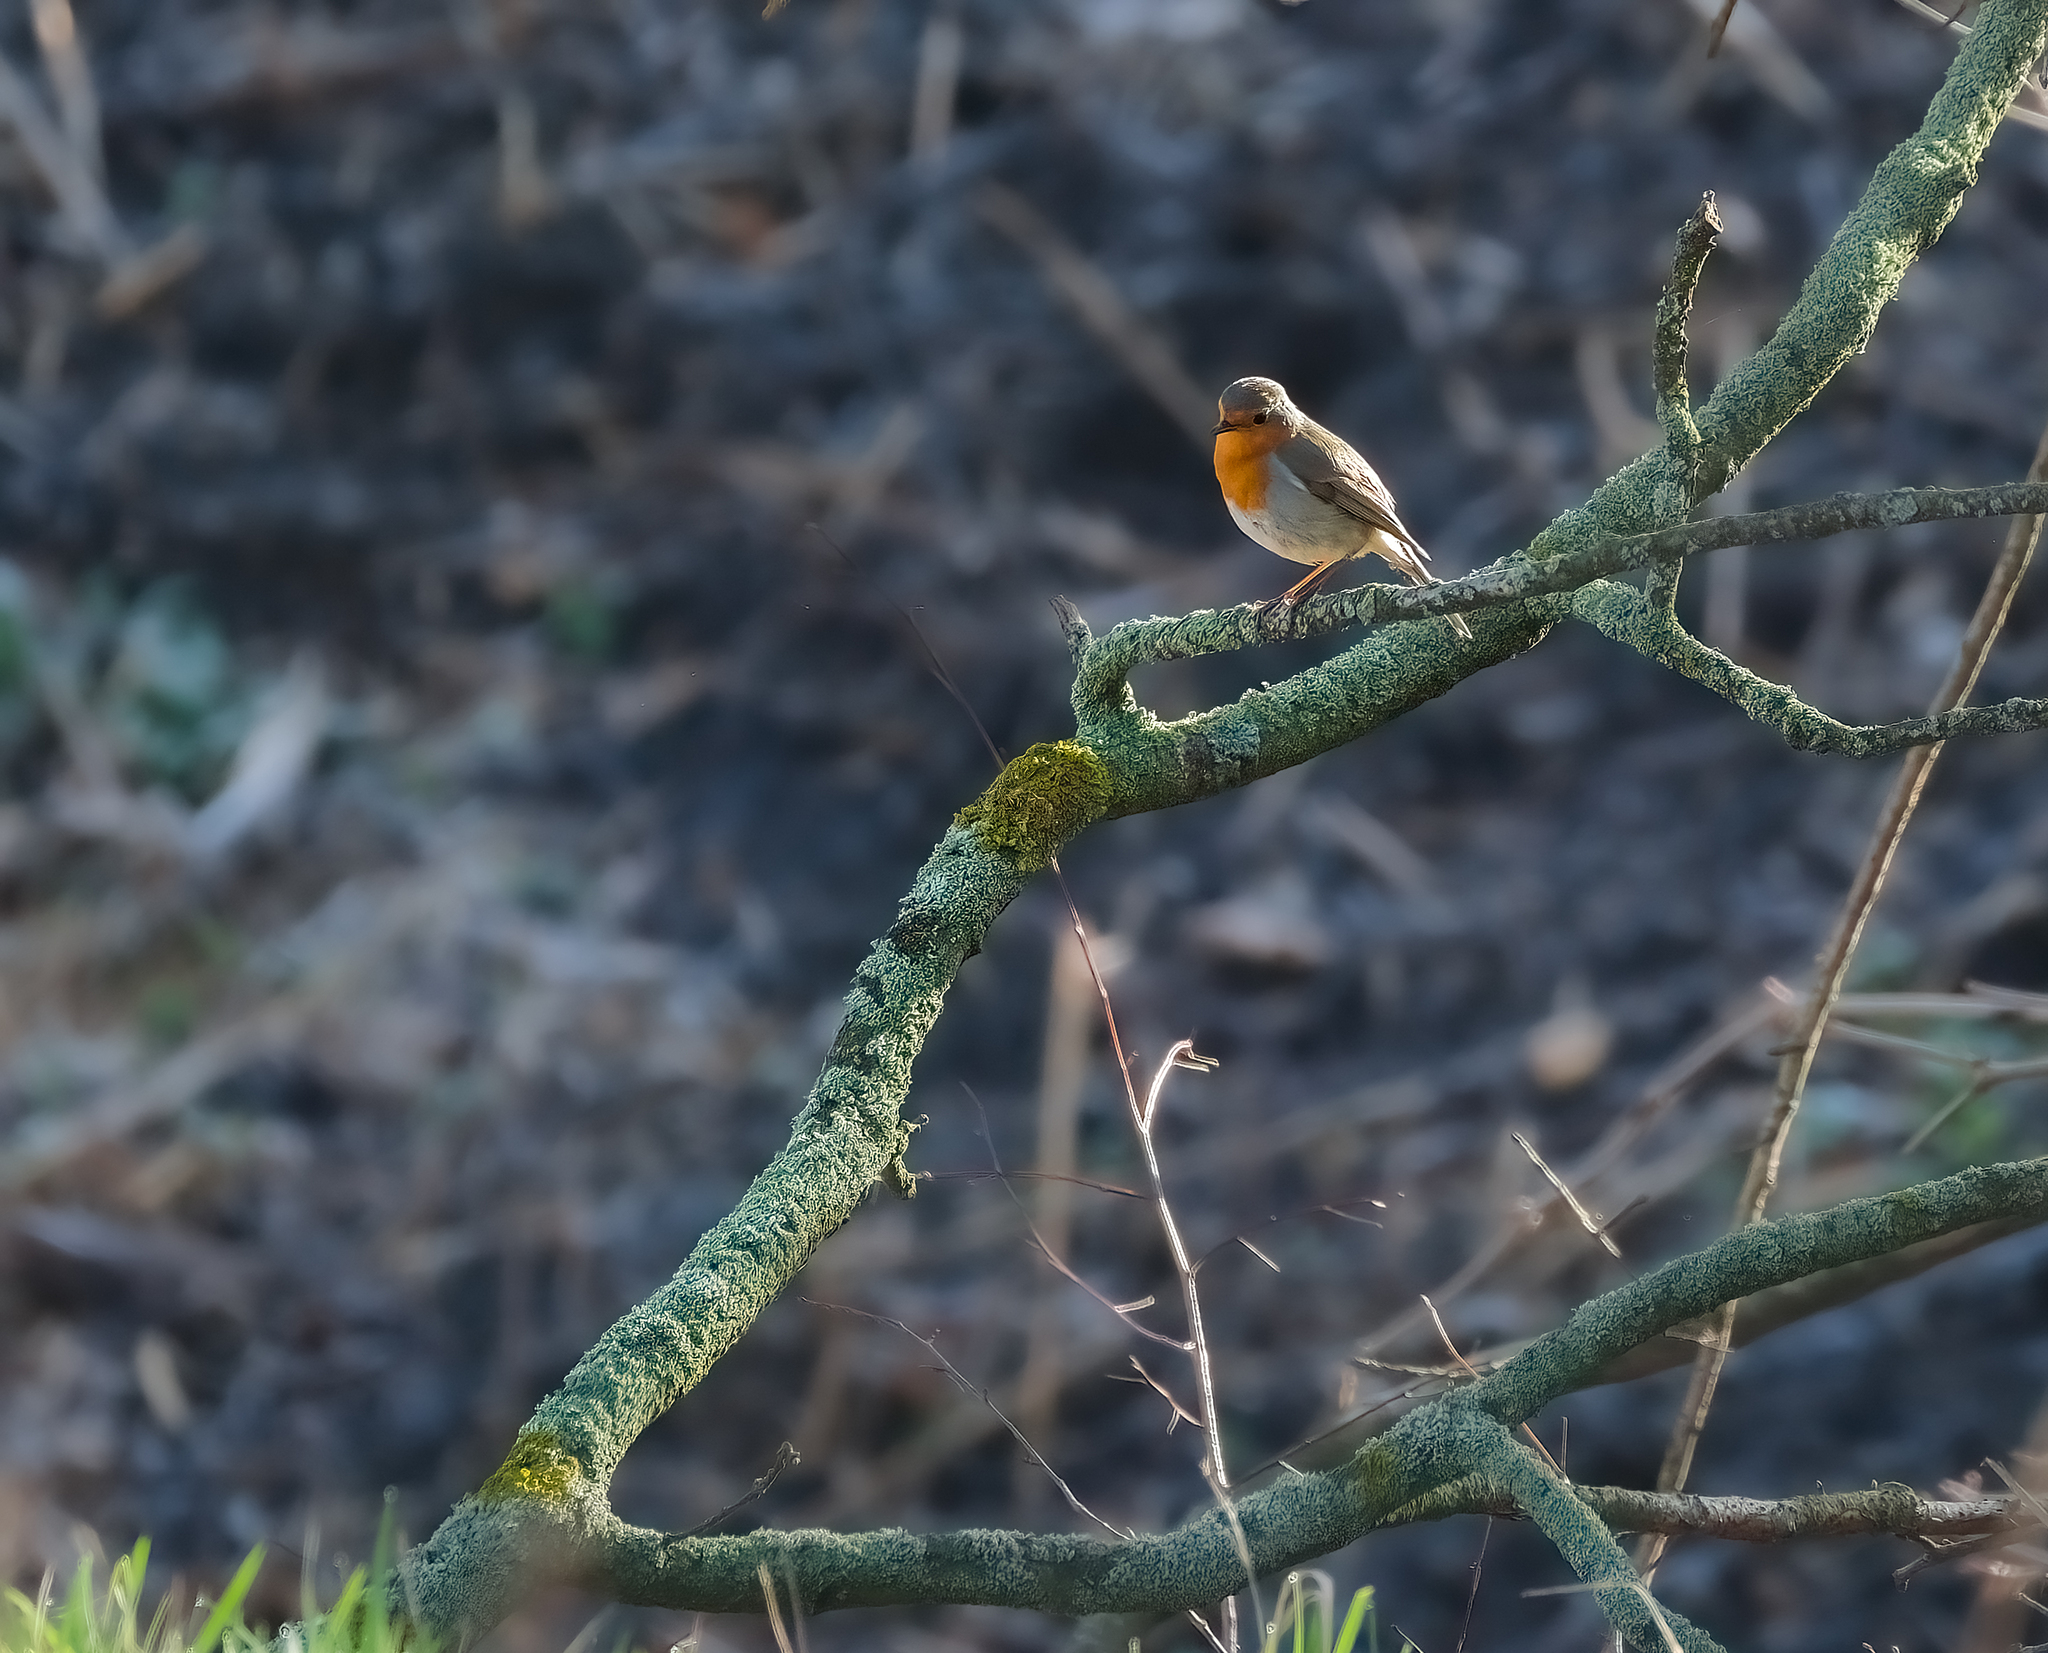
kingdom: Animalia
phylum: Chordata
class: Aves
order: Passeriformes
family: Muscicapidae
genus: Erithacus
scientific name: Erithacus rubecula
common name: European robin
